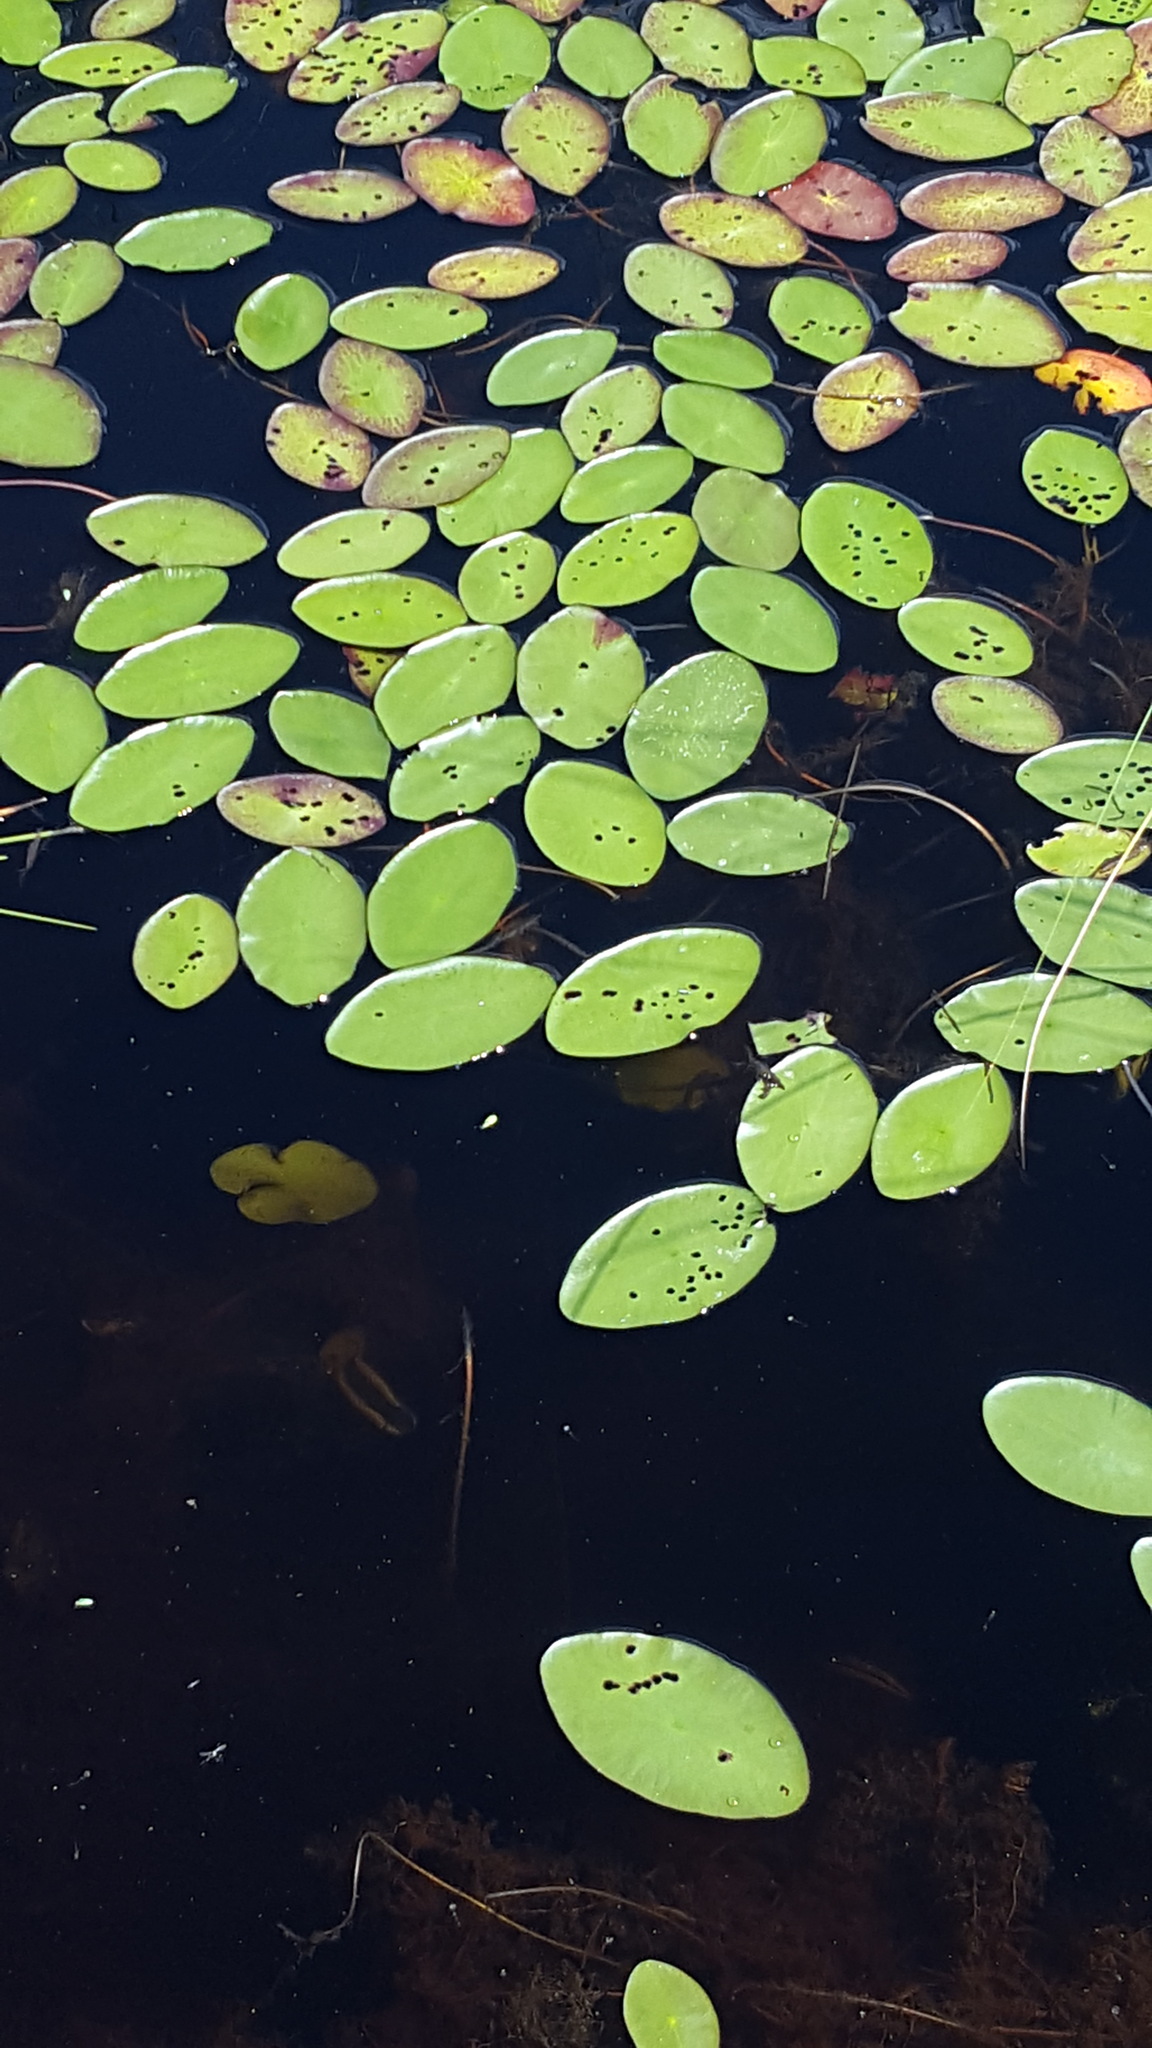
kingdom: Plantae
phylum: Tracheophyta
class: Magnoliopsida
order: Nymphaeales
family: Cabombaceae
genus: Brasenia
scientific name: Brasenia schreberi
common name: Water-shield
